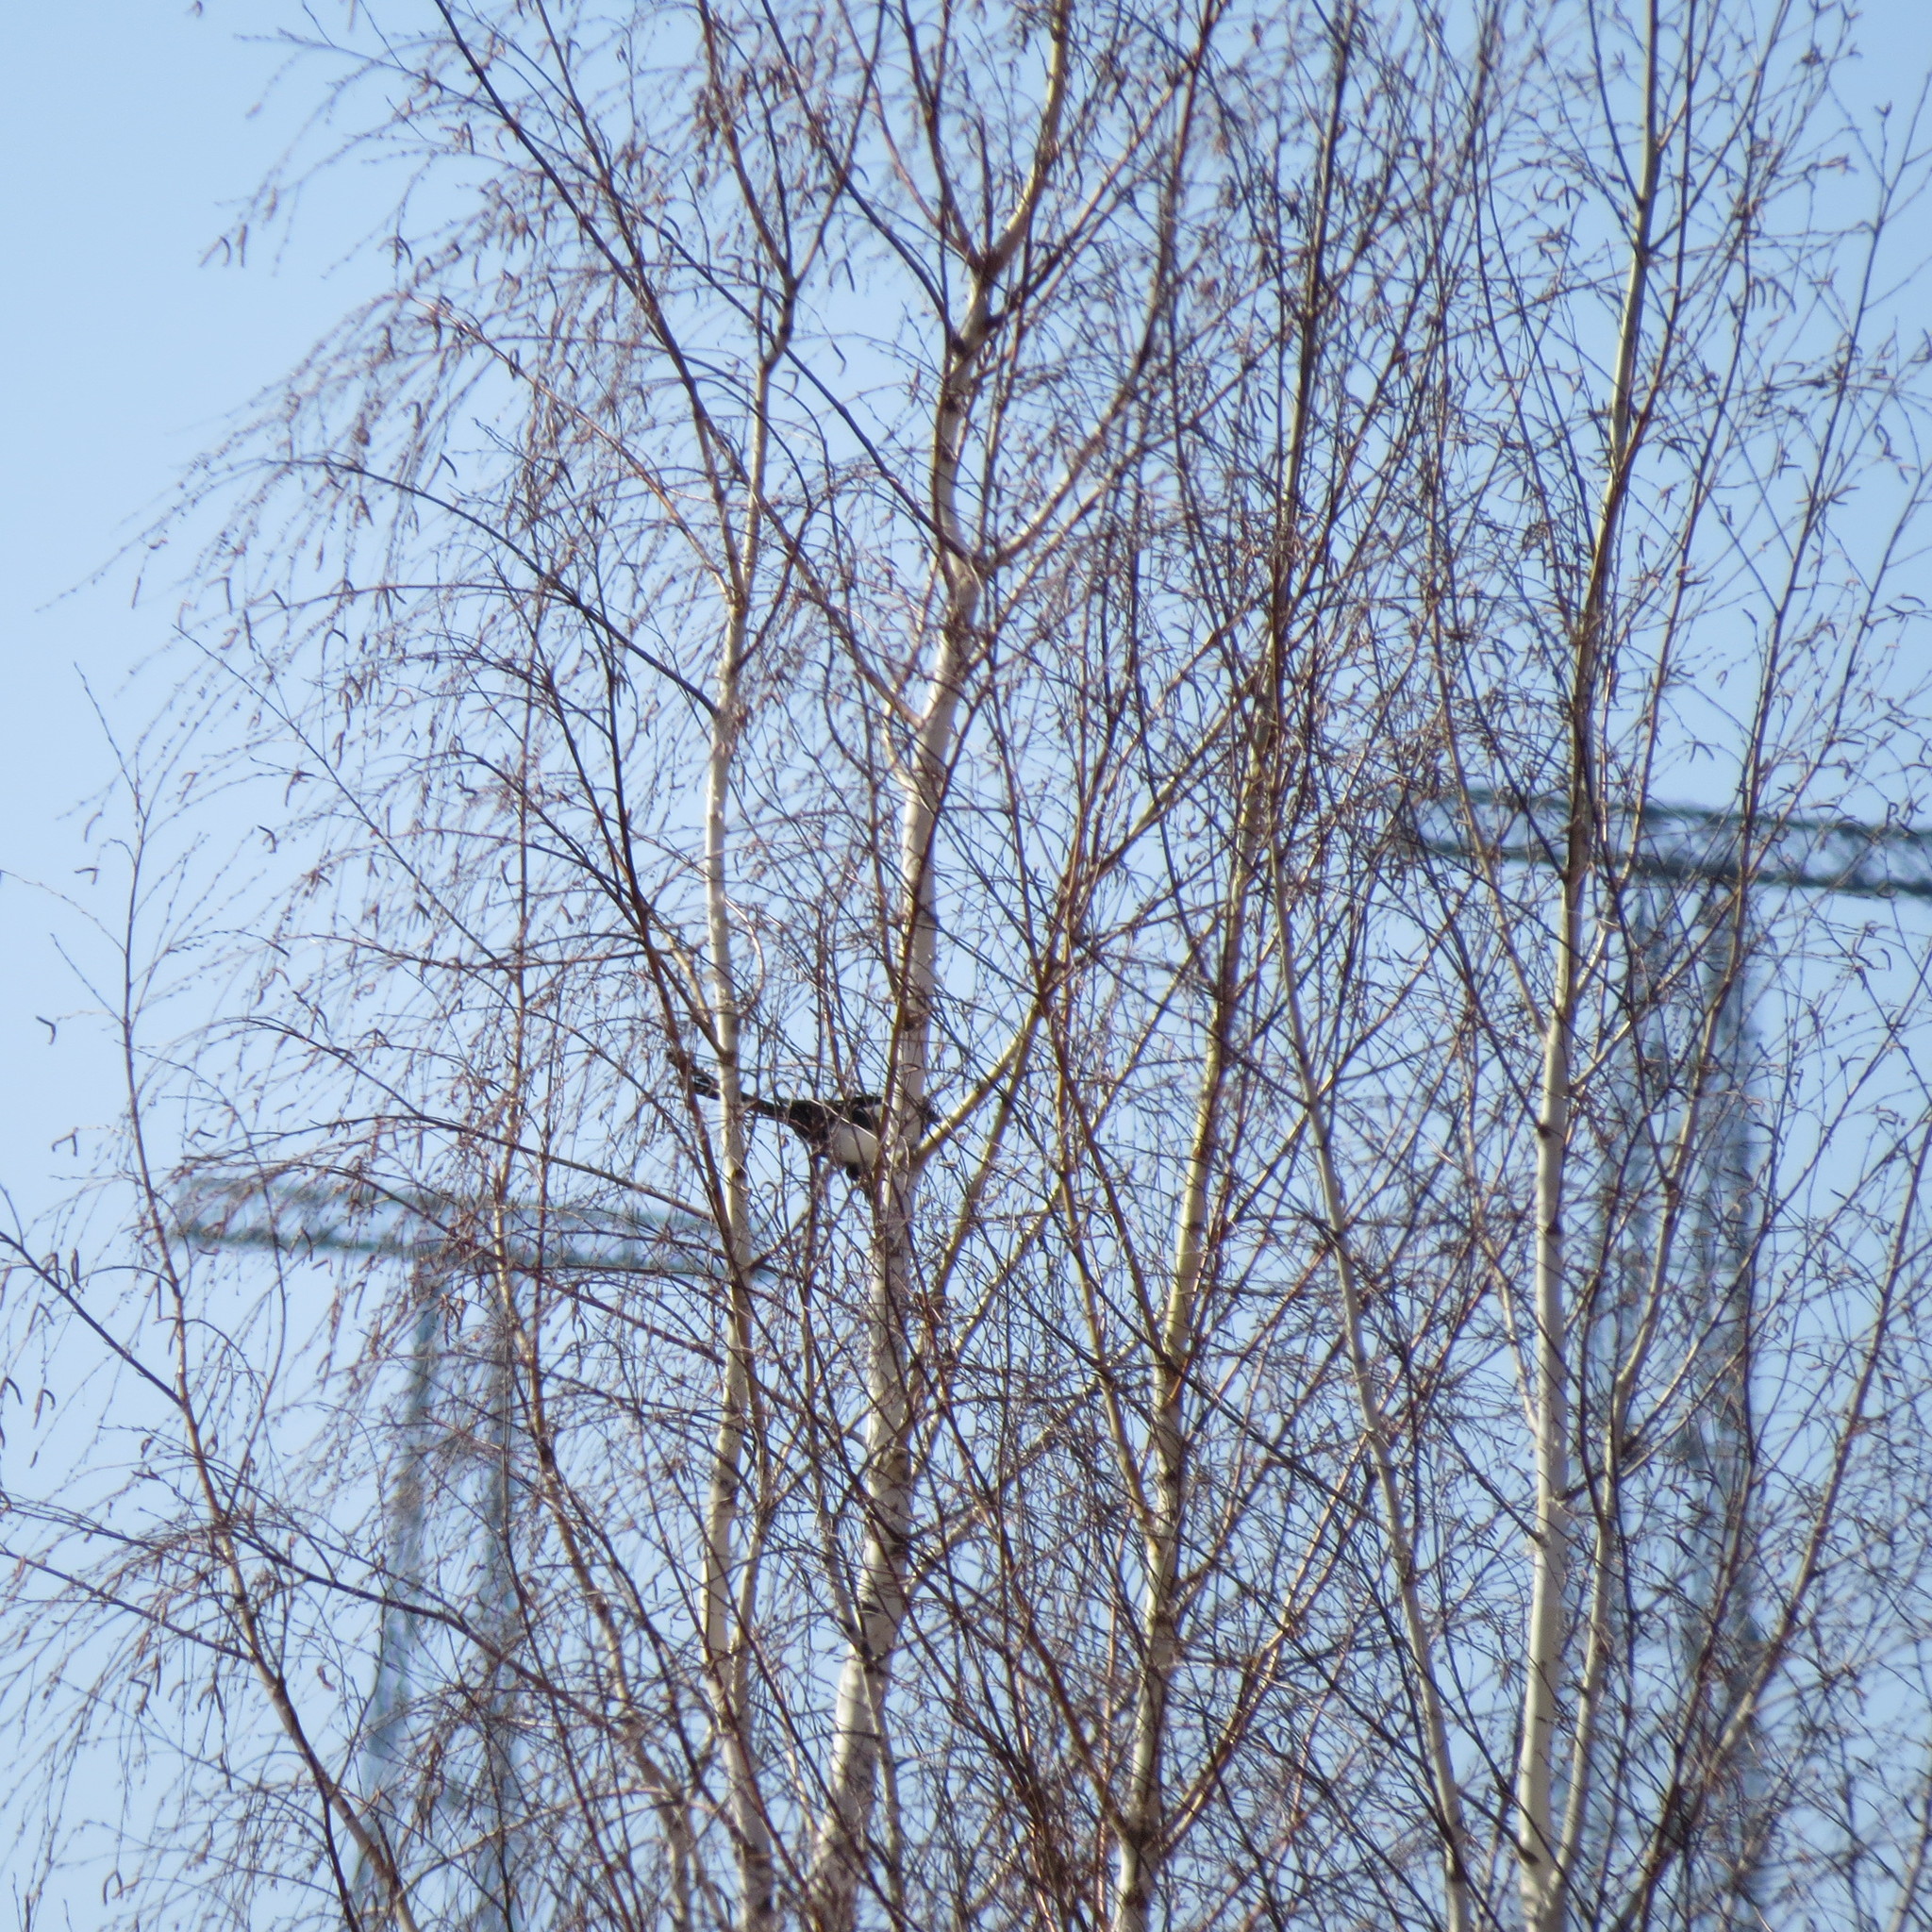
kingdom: Animalia
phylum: Chordata
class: Aves
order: Passeriformes
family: Corvidae
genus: Pica
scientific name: Pica pica
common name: Eurasian magpie
